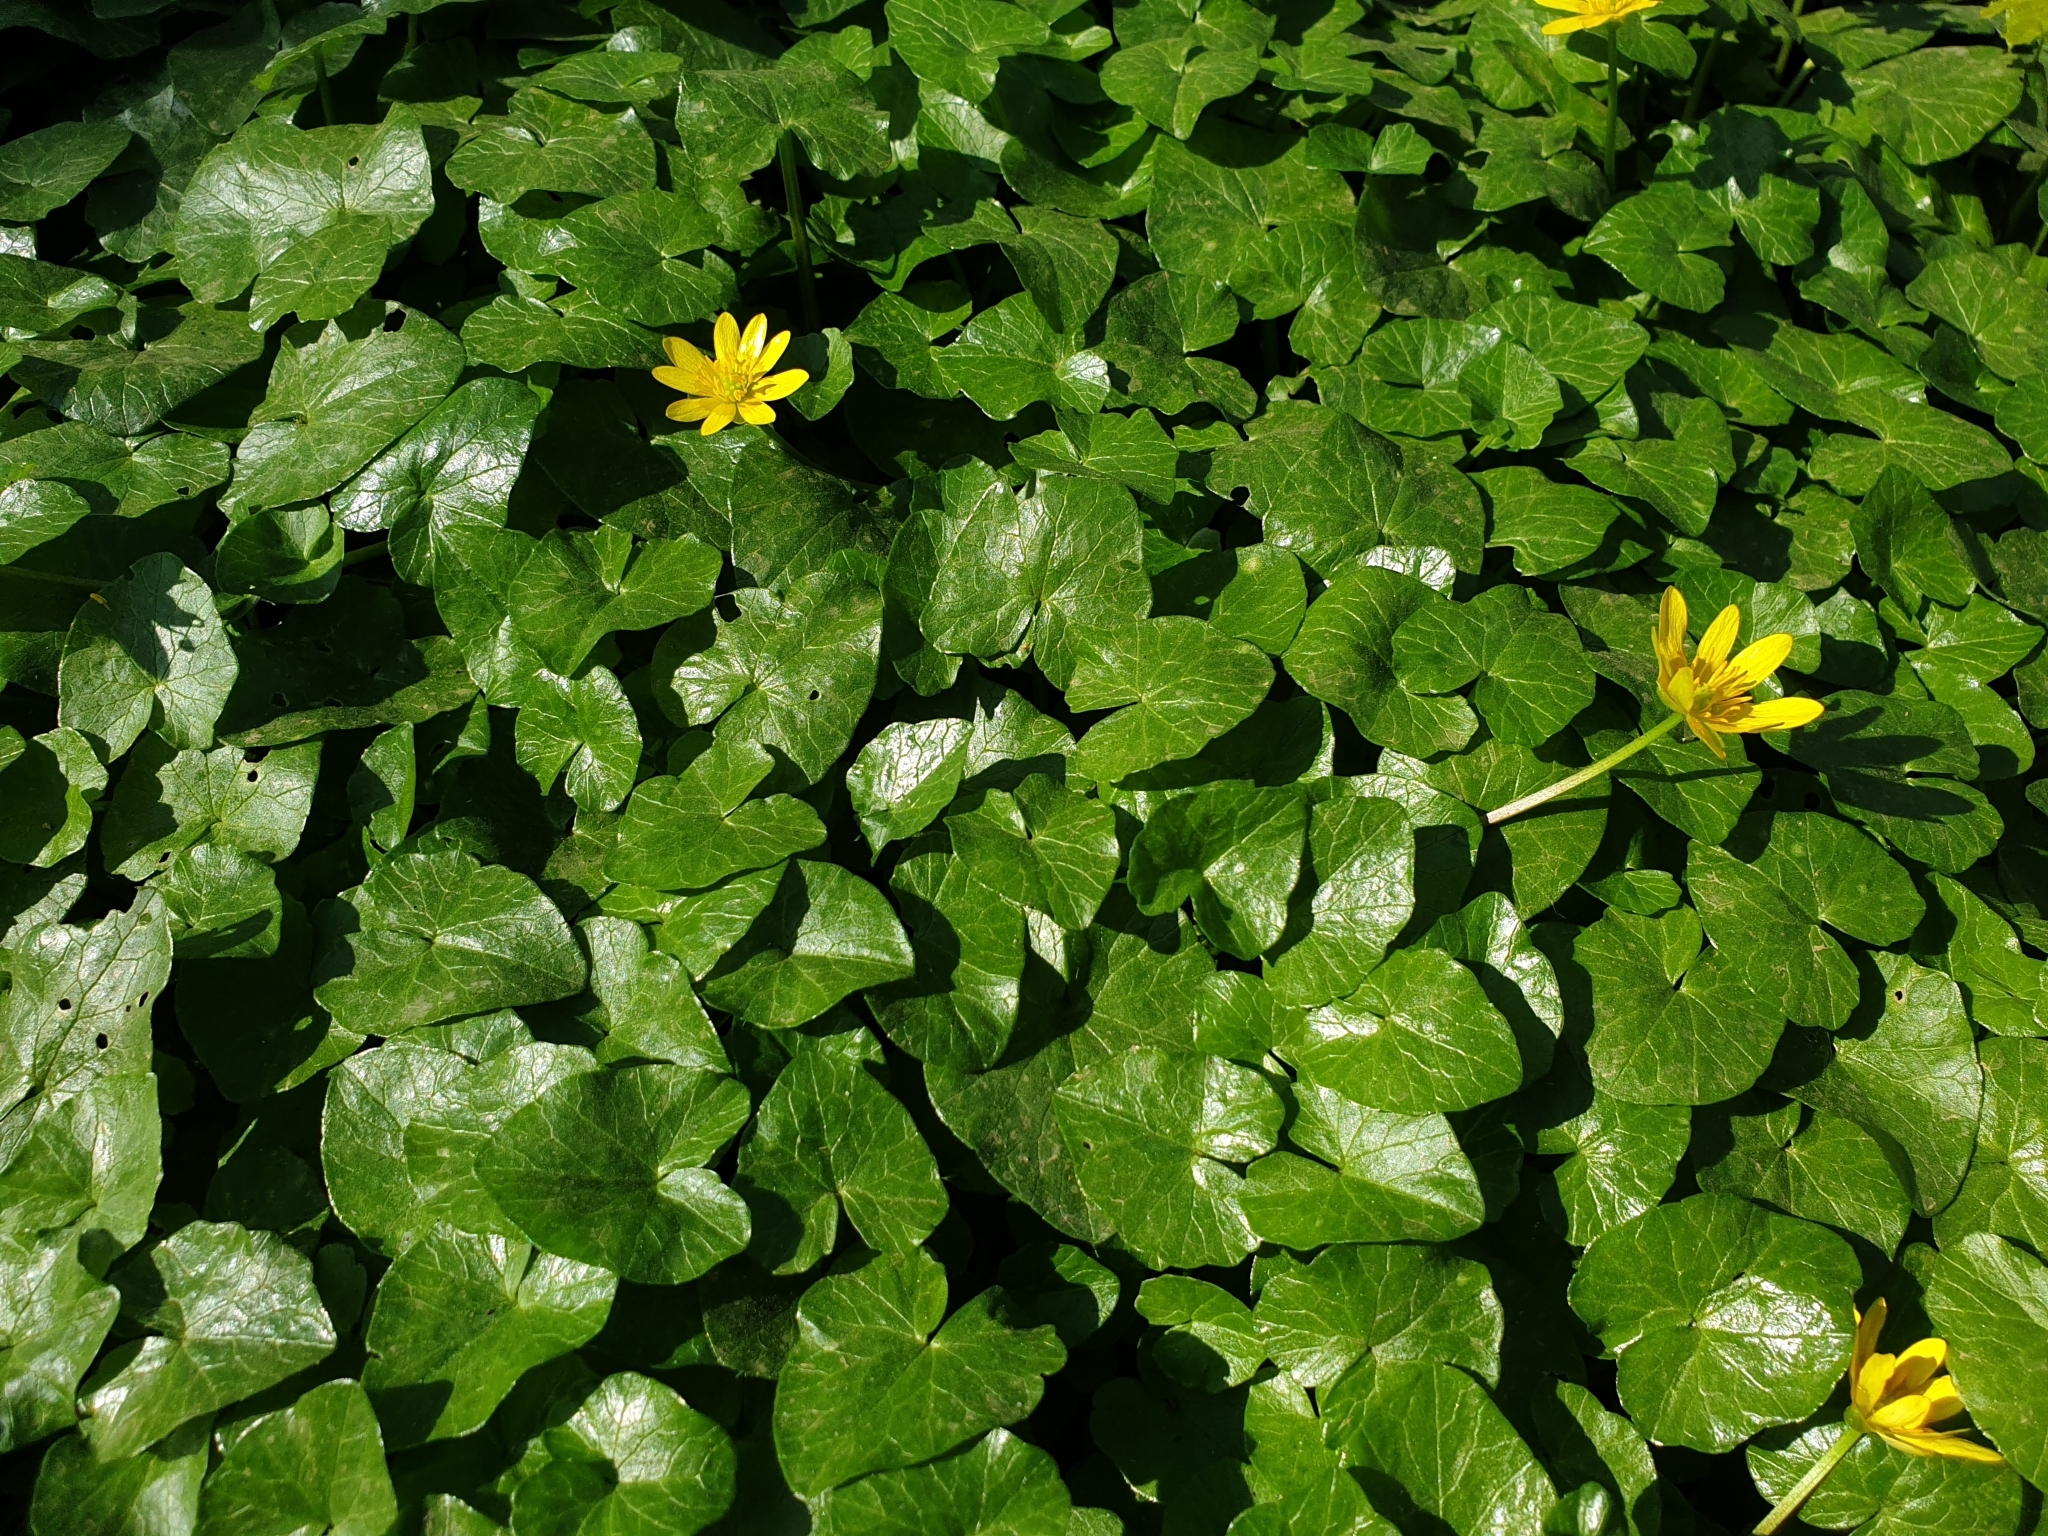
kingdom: Plantae
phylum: Tracheophyta
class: Magnoliopsida
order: Ranunculales
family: Ranunculaceae
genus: Ficaria
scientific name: Ficaria verna
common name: Lesser celandine
